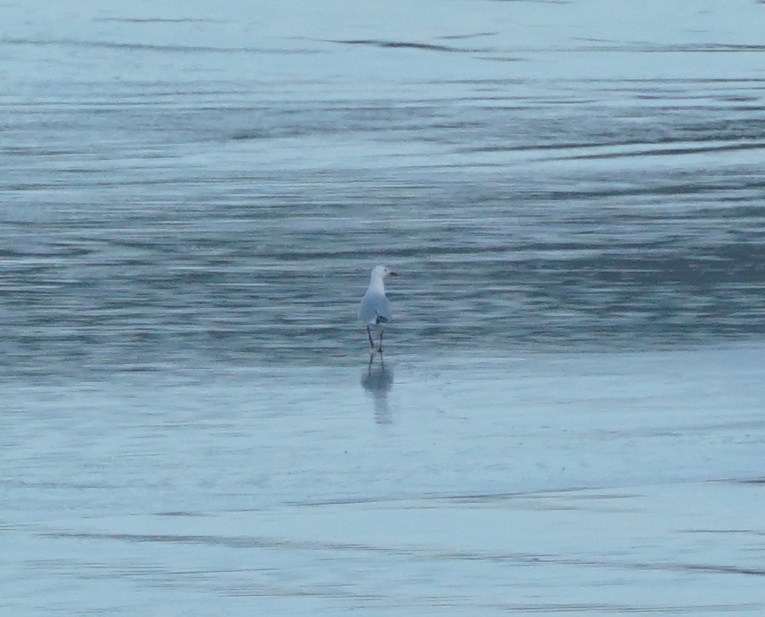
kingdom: Animalia
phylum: Chordata
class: Aves
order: Charadriiformes
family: Laridae
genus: Chroicocephalus
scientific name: Chroicocephalus novaehollandiae
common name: Silver gull
